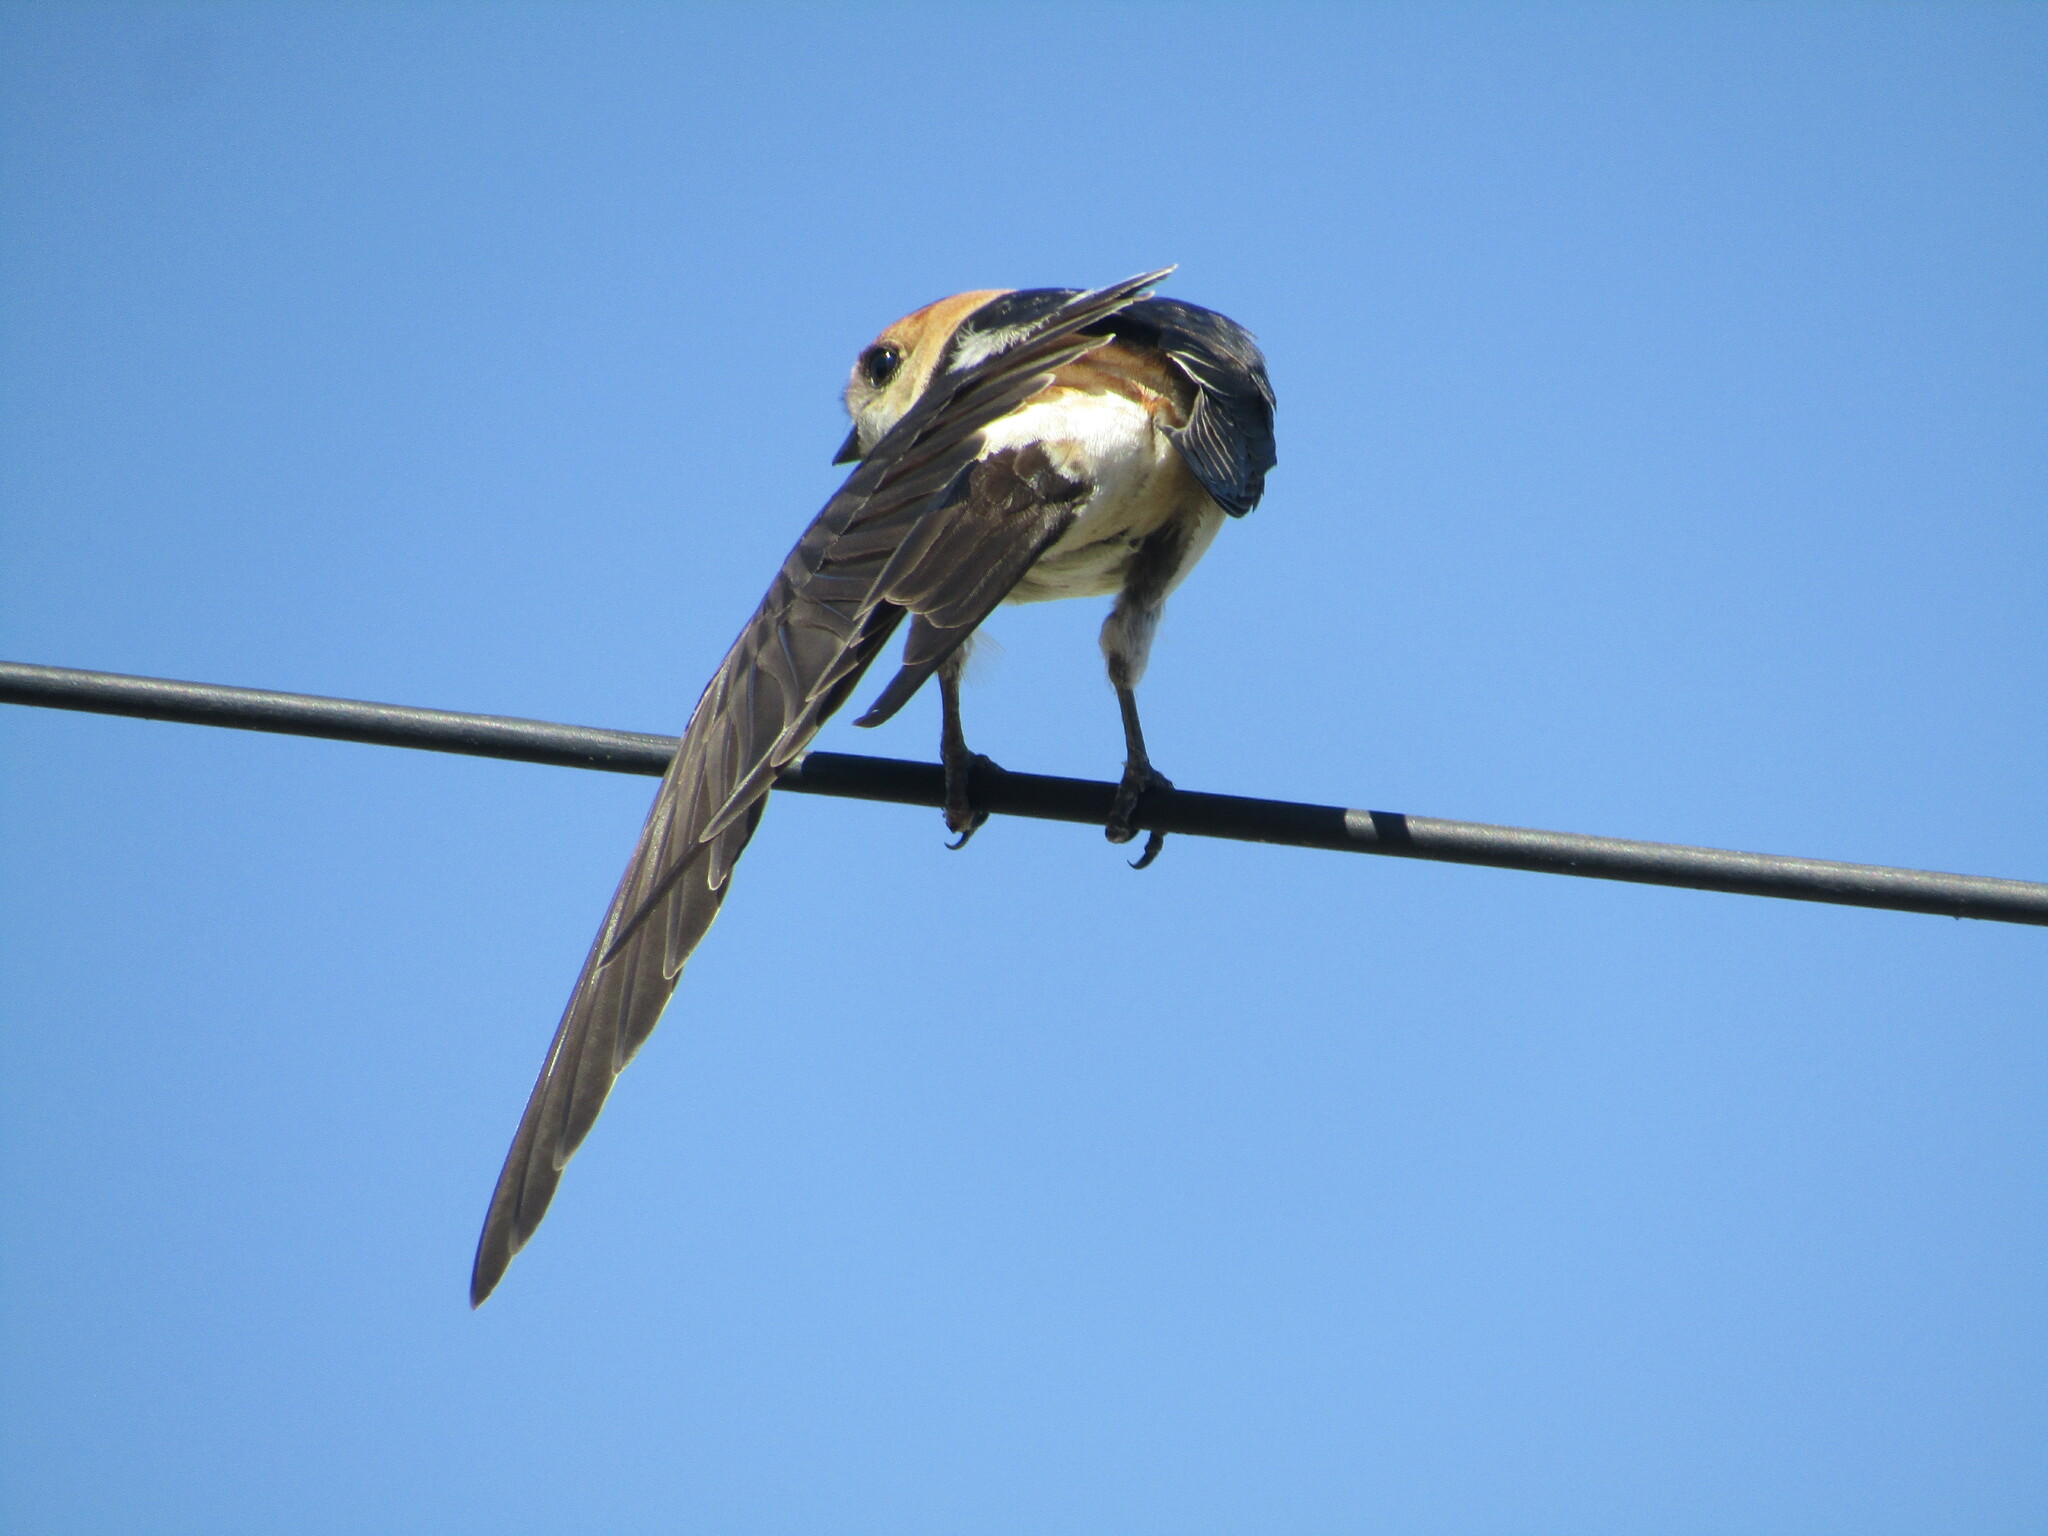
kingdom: Animalia
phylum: Chordata
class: Aves
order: Passeriformes
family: Hirundinidae
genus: Cecropis
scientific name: Cecropis daurica
